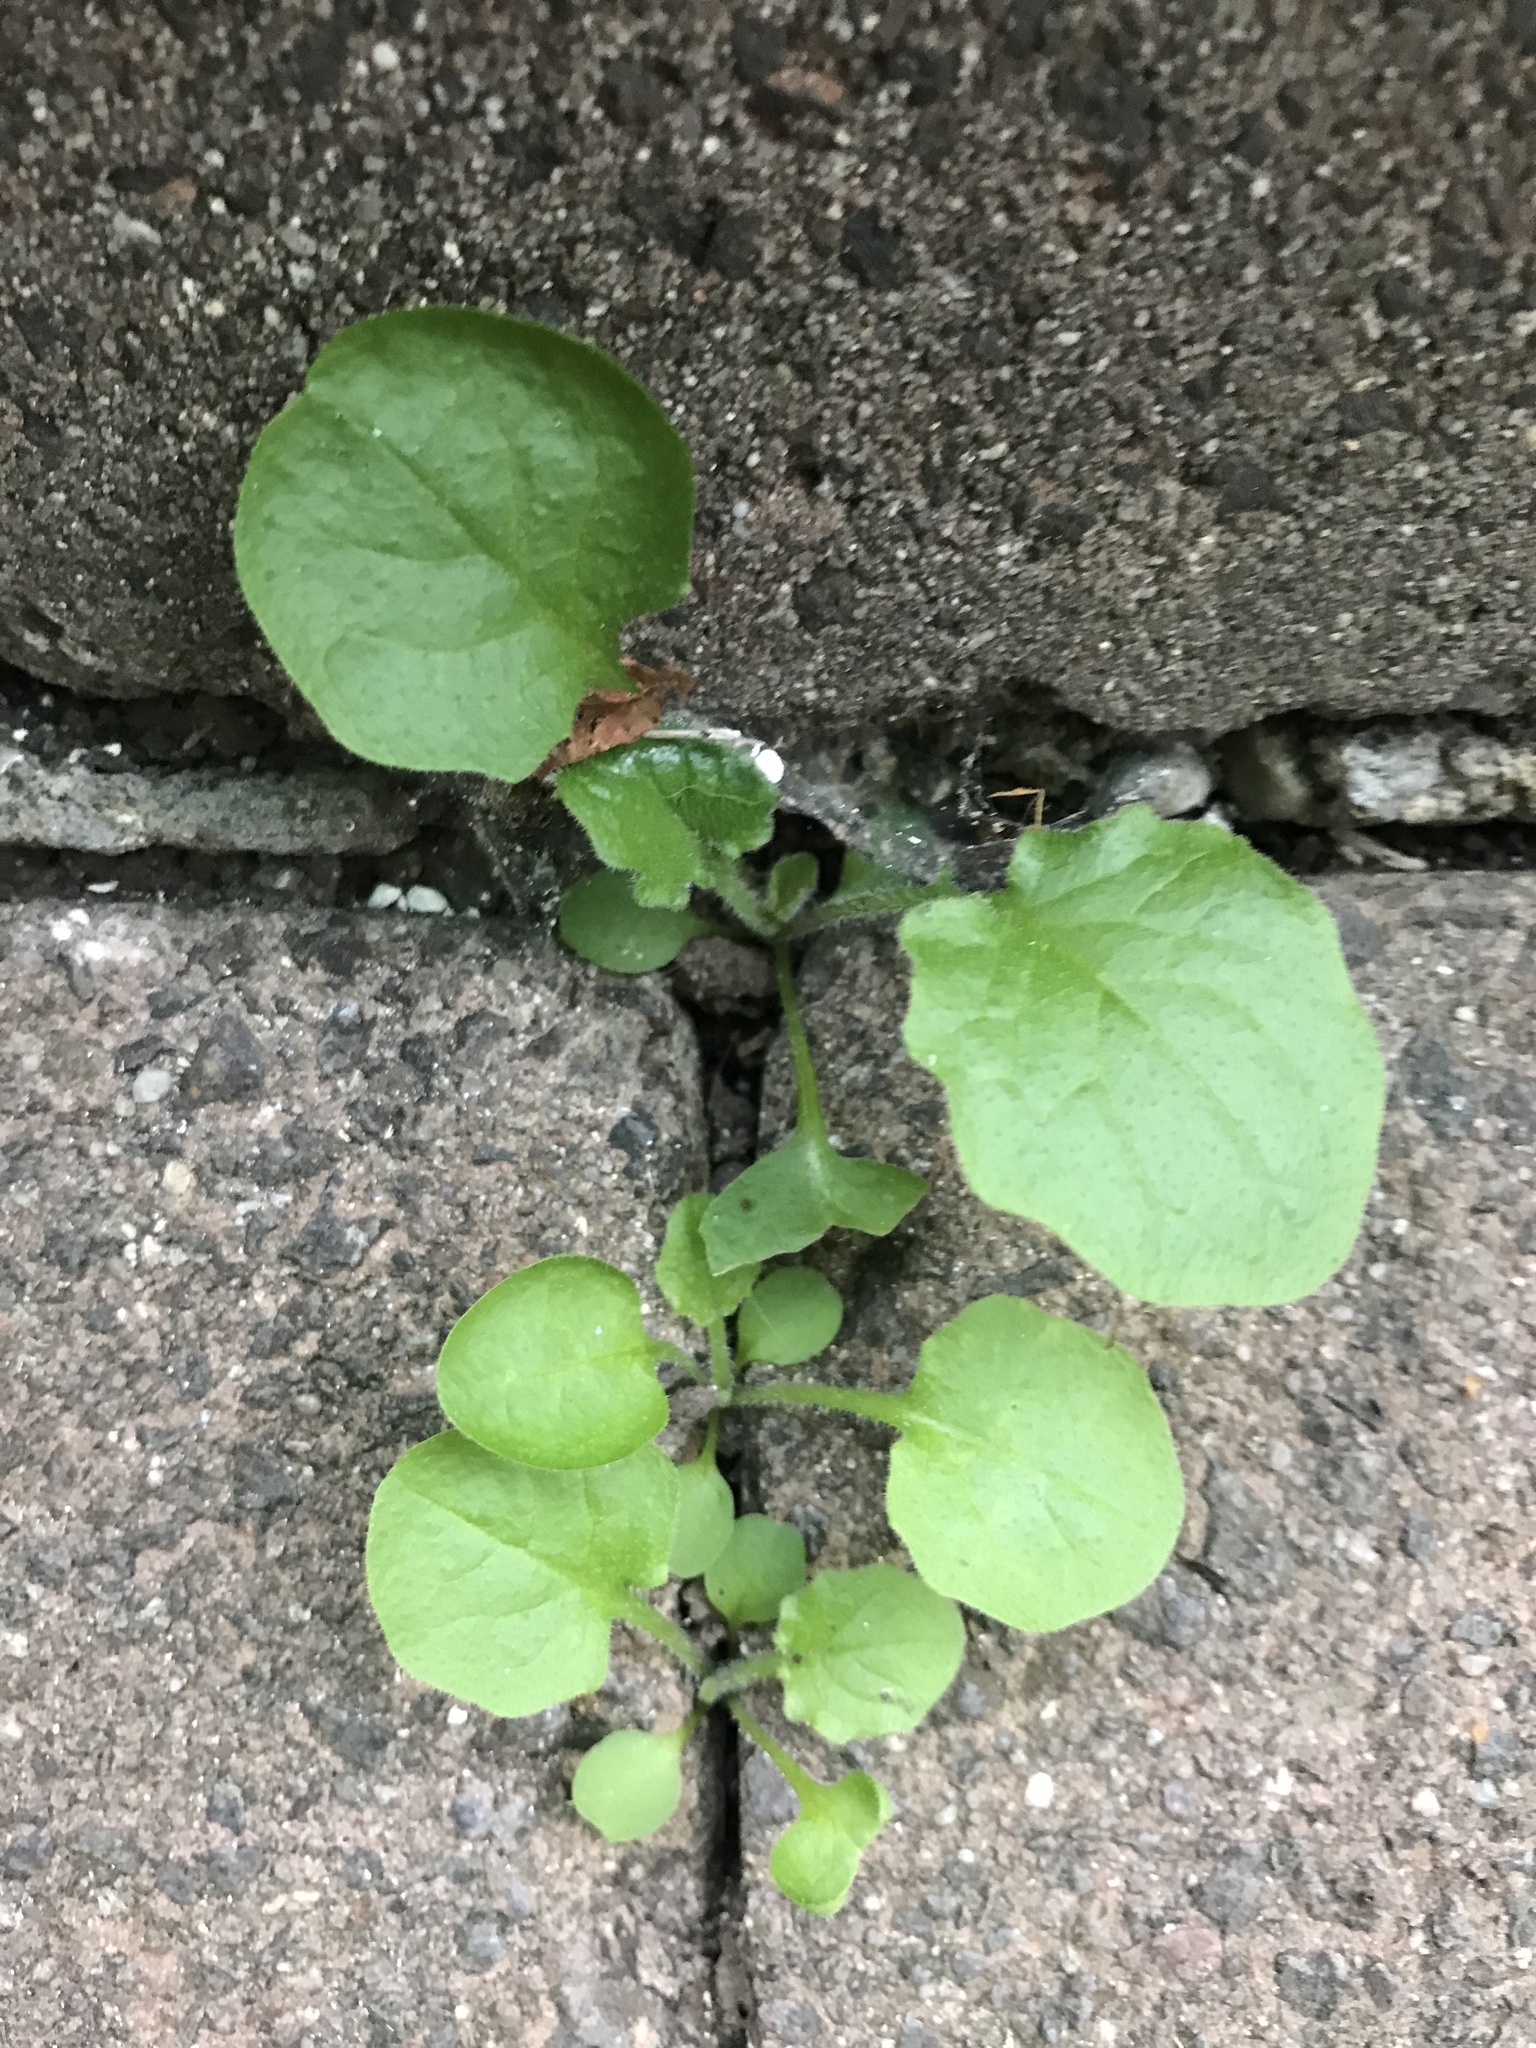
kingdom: Plantae
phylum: Tracheophyta
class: Magnoliopsida
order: Asterales
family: Asteraceae
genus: Lapsana
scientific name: Lapsana communis
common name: Nipplewort
